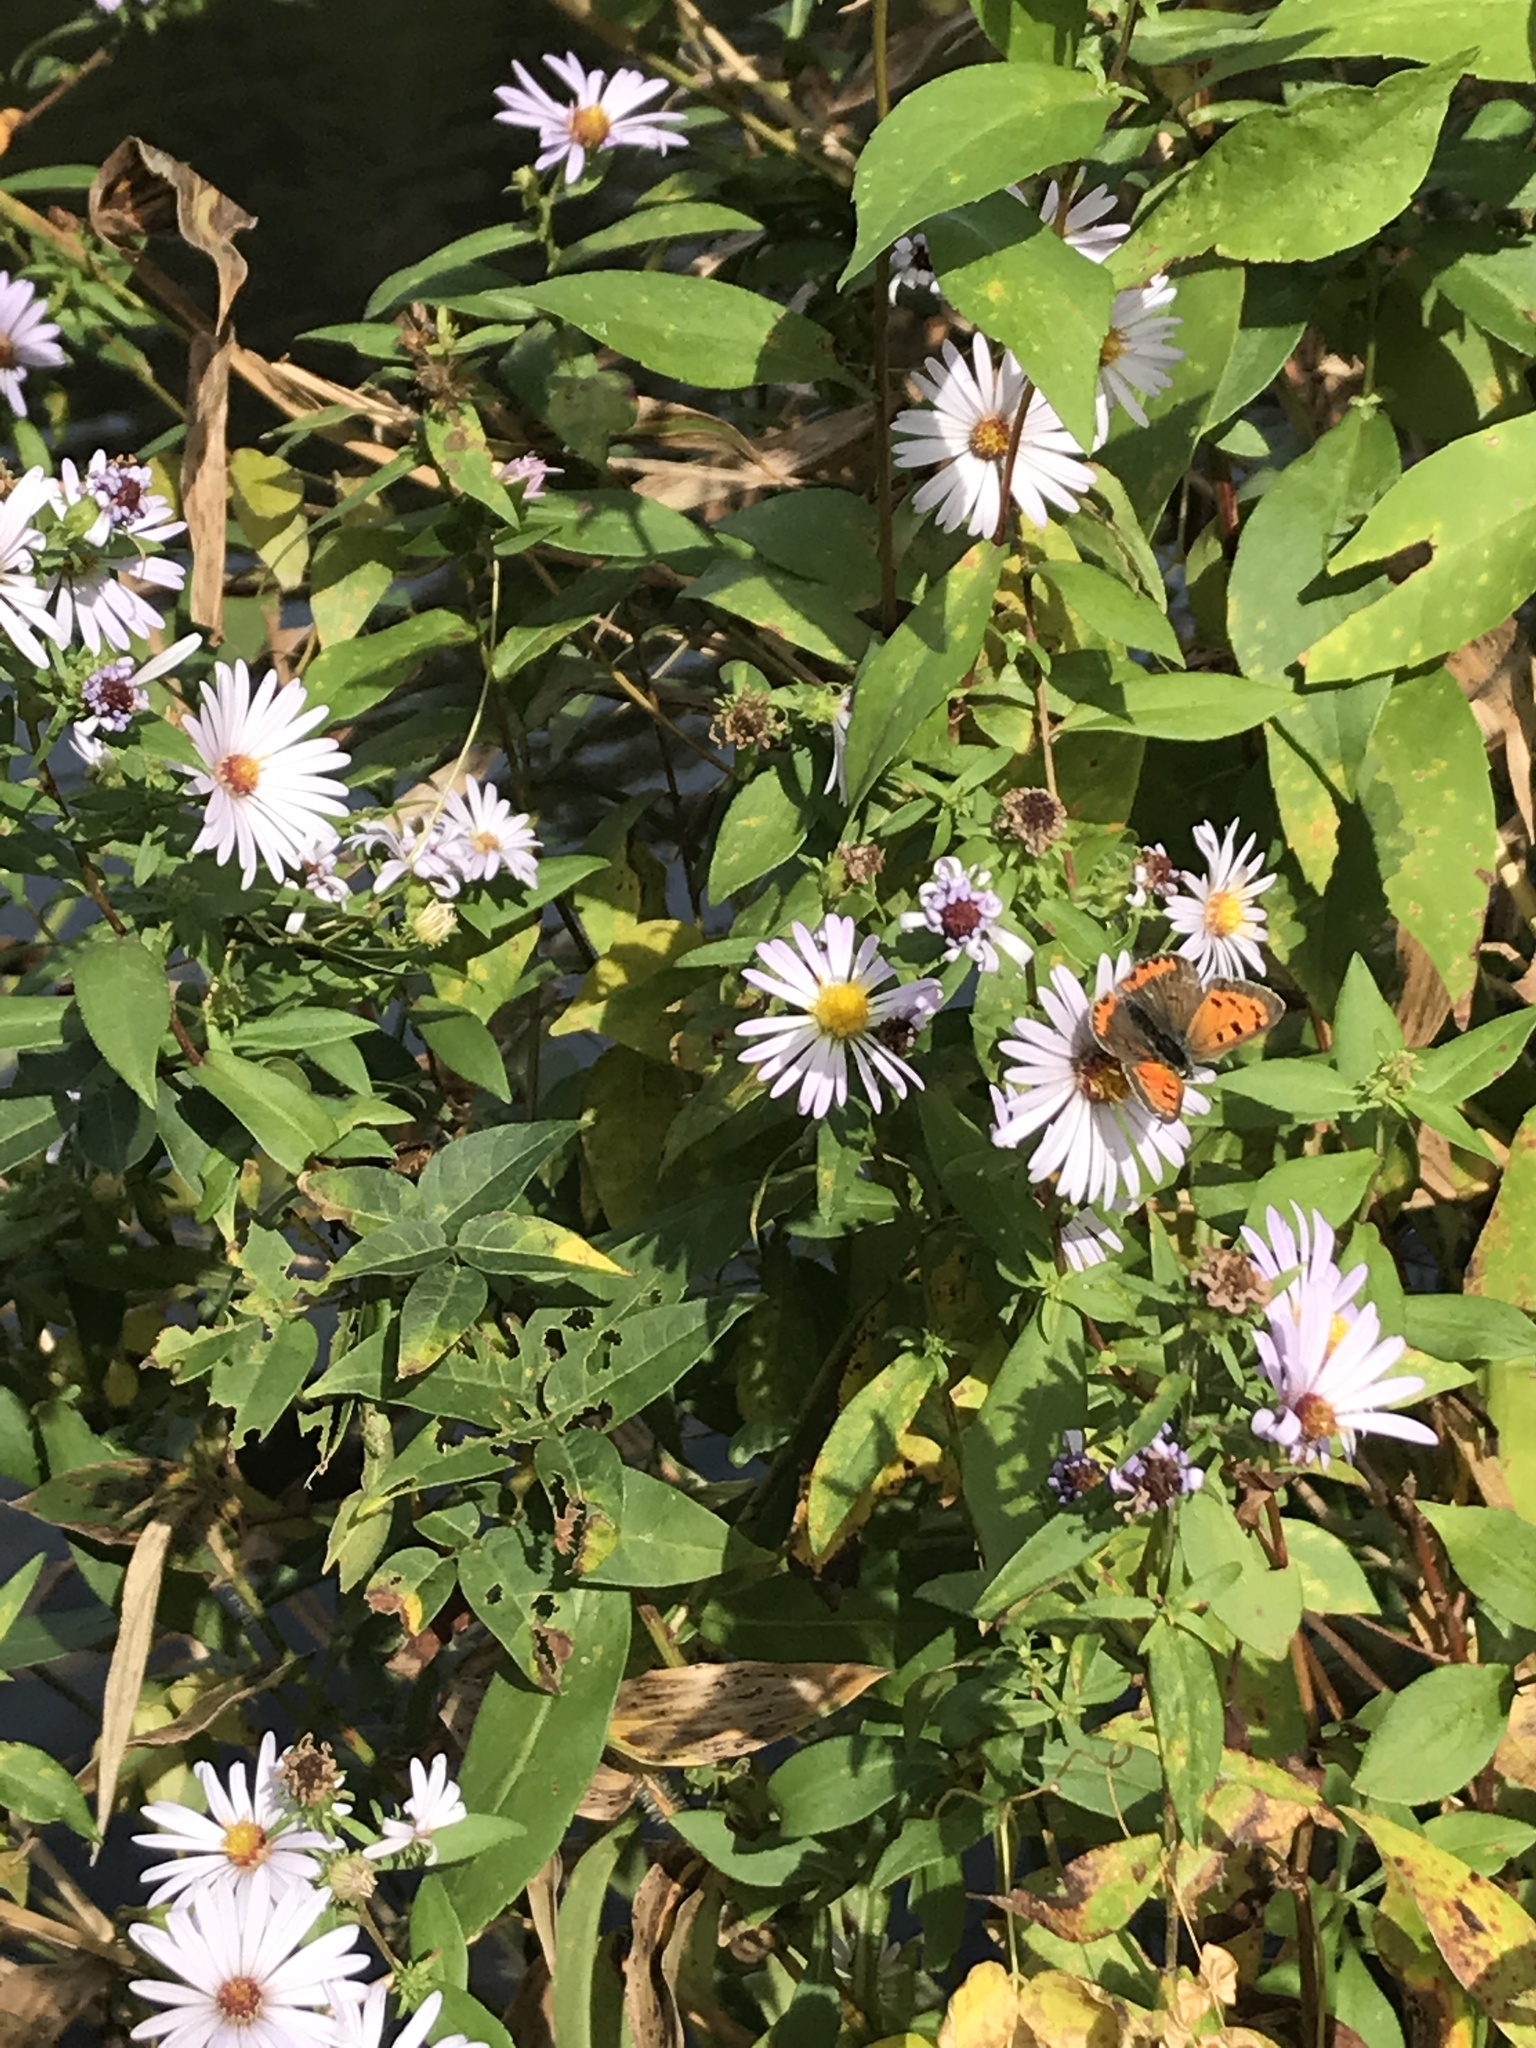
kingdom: Animalia
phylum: Arthropoda
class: Insecta
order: Lepidoptera
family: Lycaenidae
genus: Lycaena
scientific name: Lycaena hypophlaeas
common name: American copper
